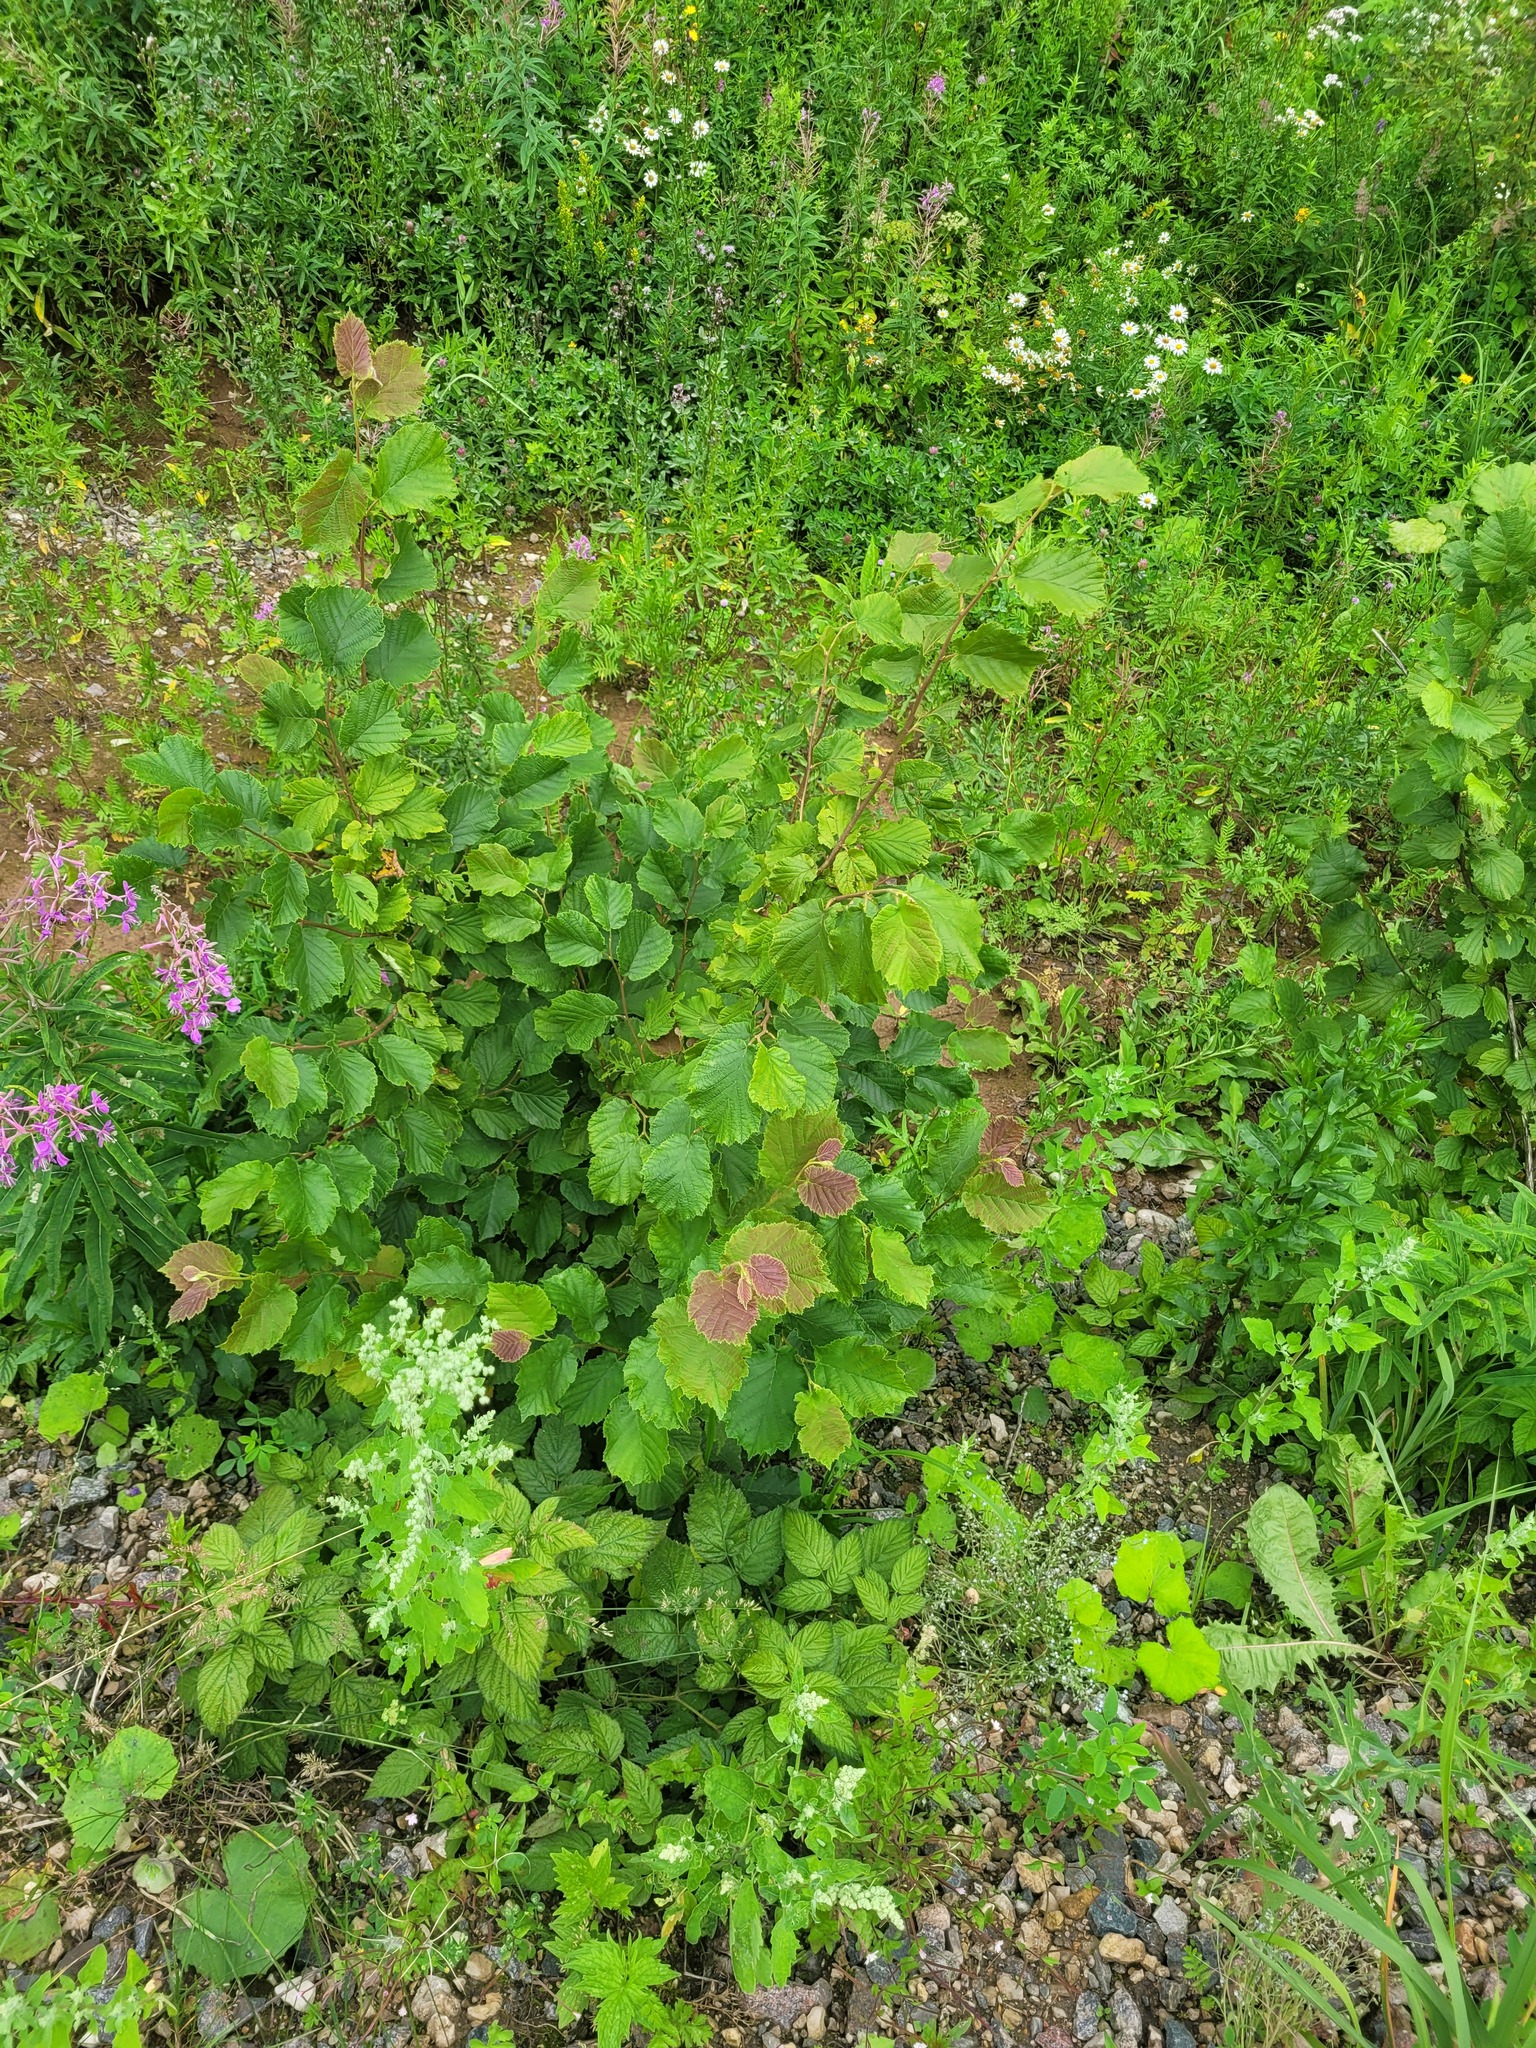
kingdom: Plantae
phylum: Tracheophyta
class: Magnoliopsida
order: Fagales
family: Betulaceae
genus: Corylus
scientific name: Corylus avellana
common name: European hazel
